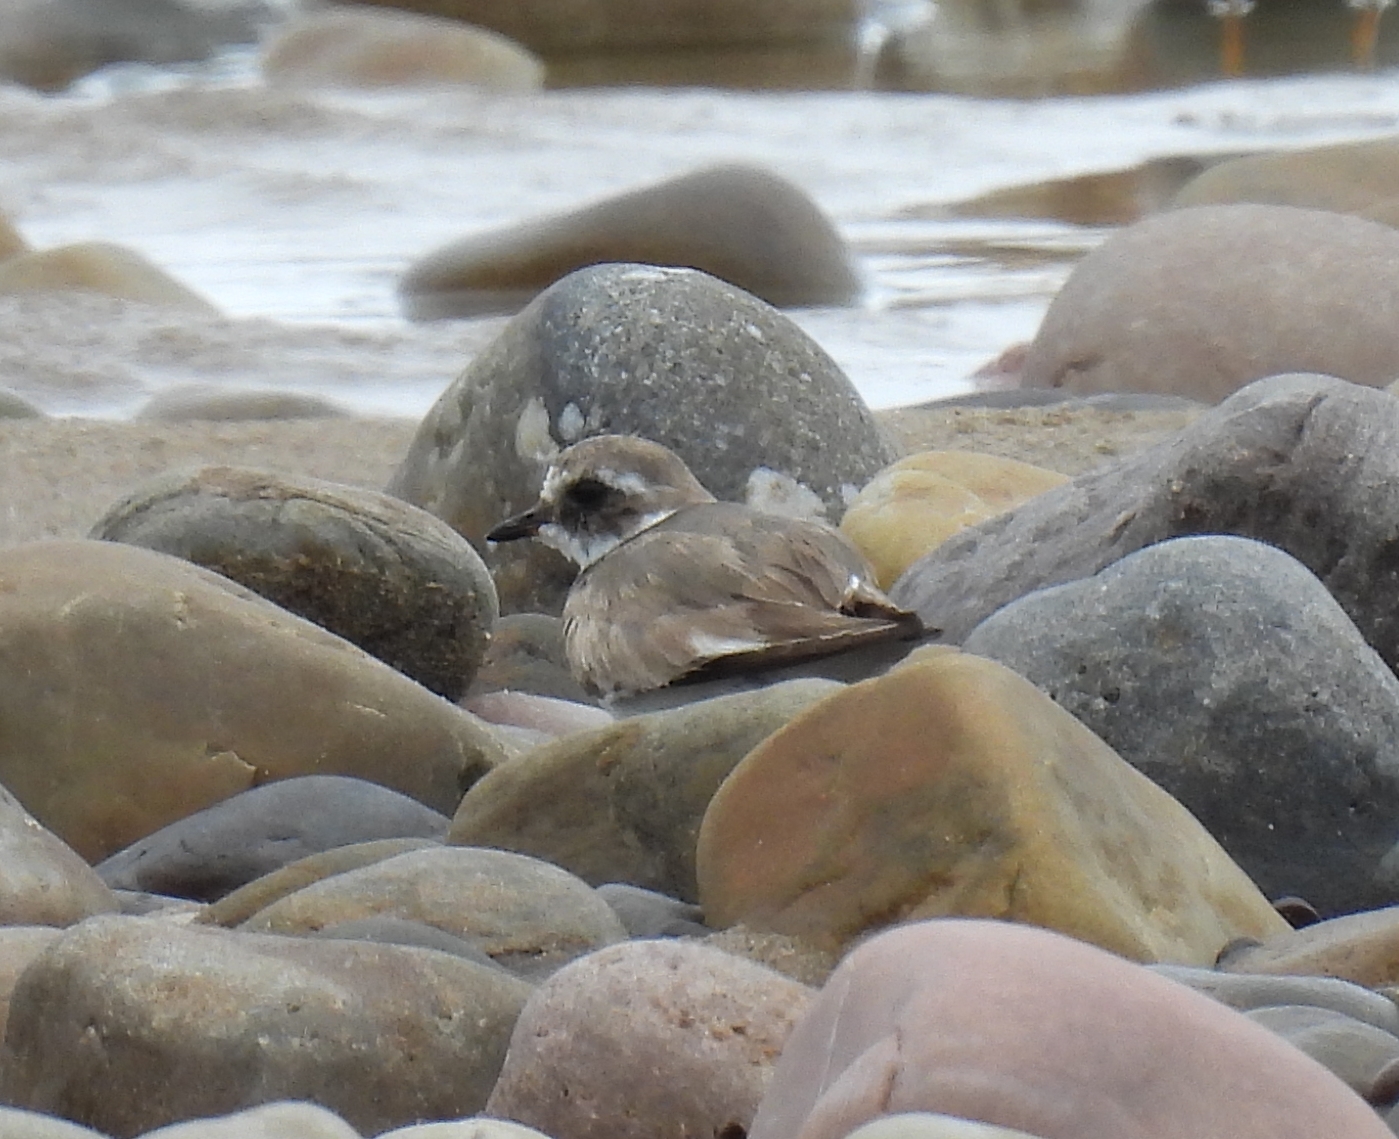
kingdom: Animalia
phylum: Chordata
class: Aves
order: Charadriiformes
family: Charadriidae
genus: Charadrius
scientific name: Charadrius hiaticula
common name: Common ringed plover
